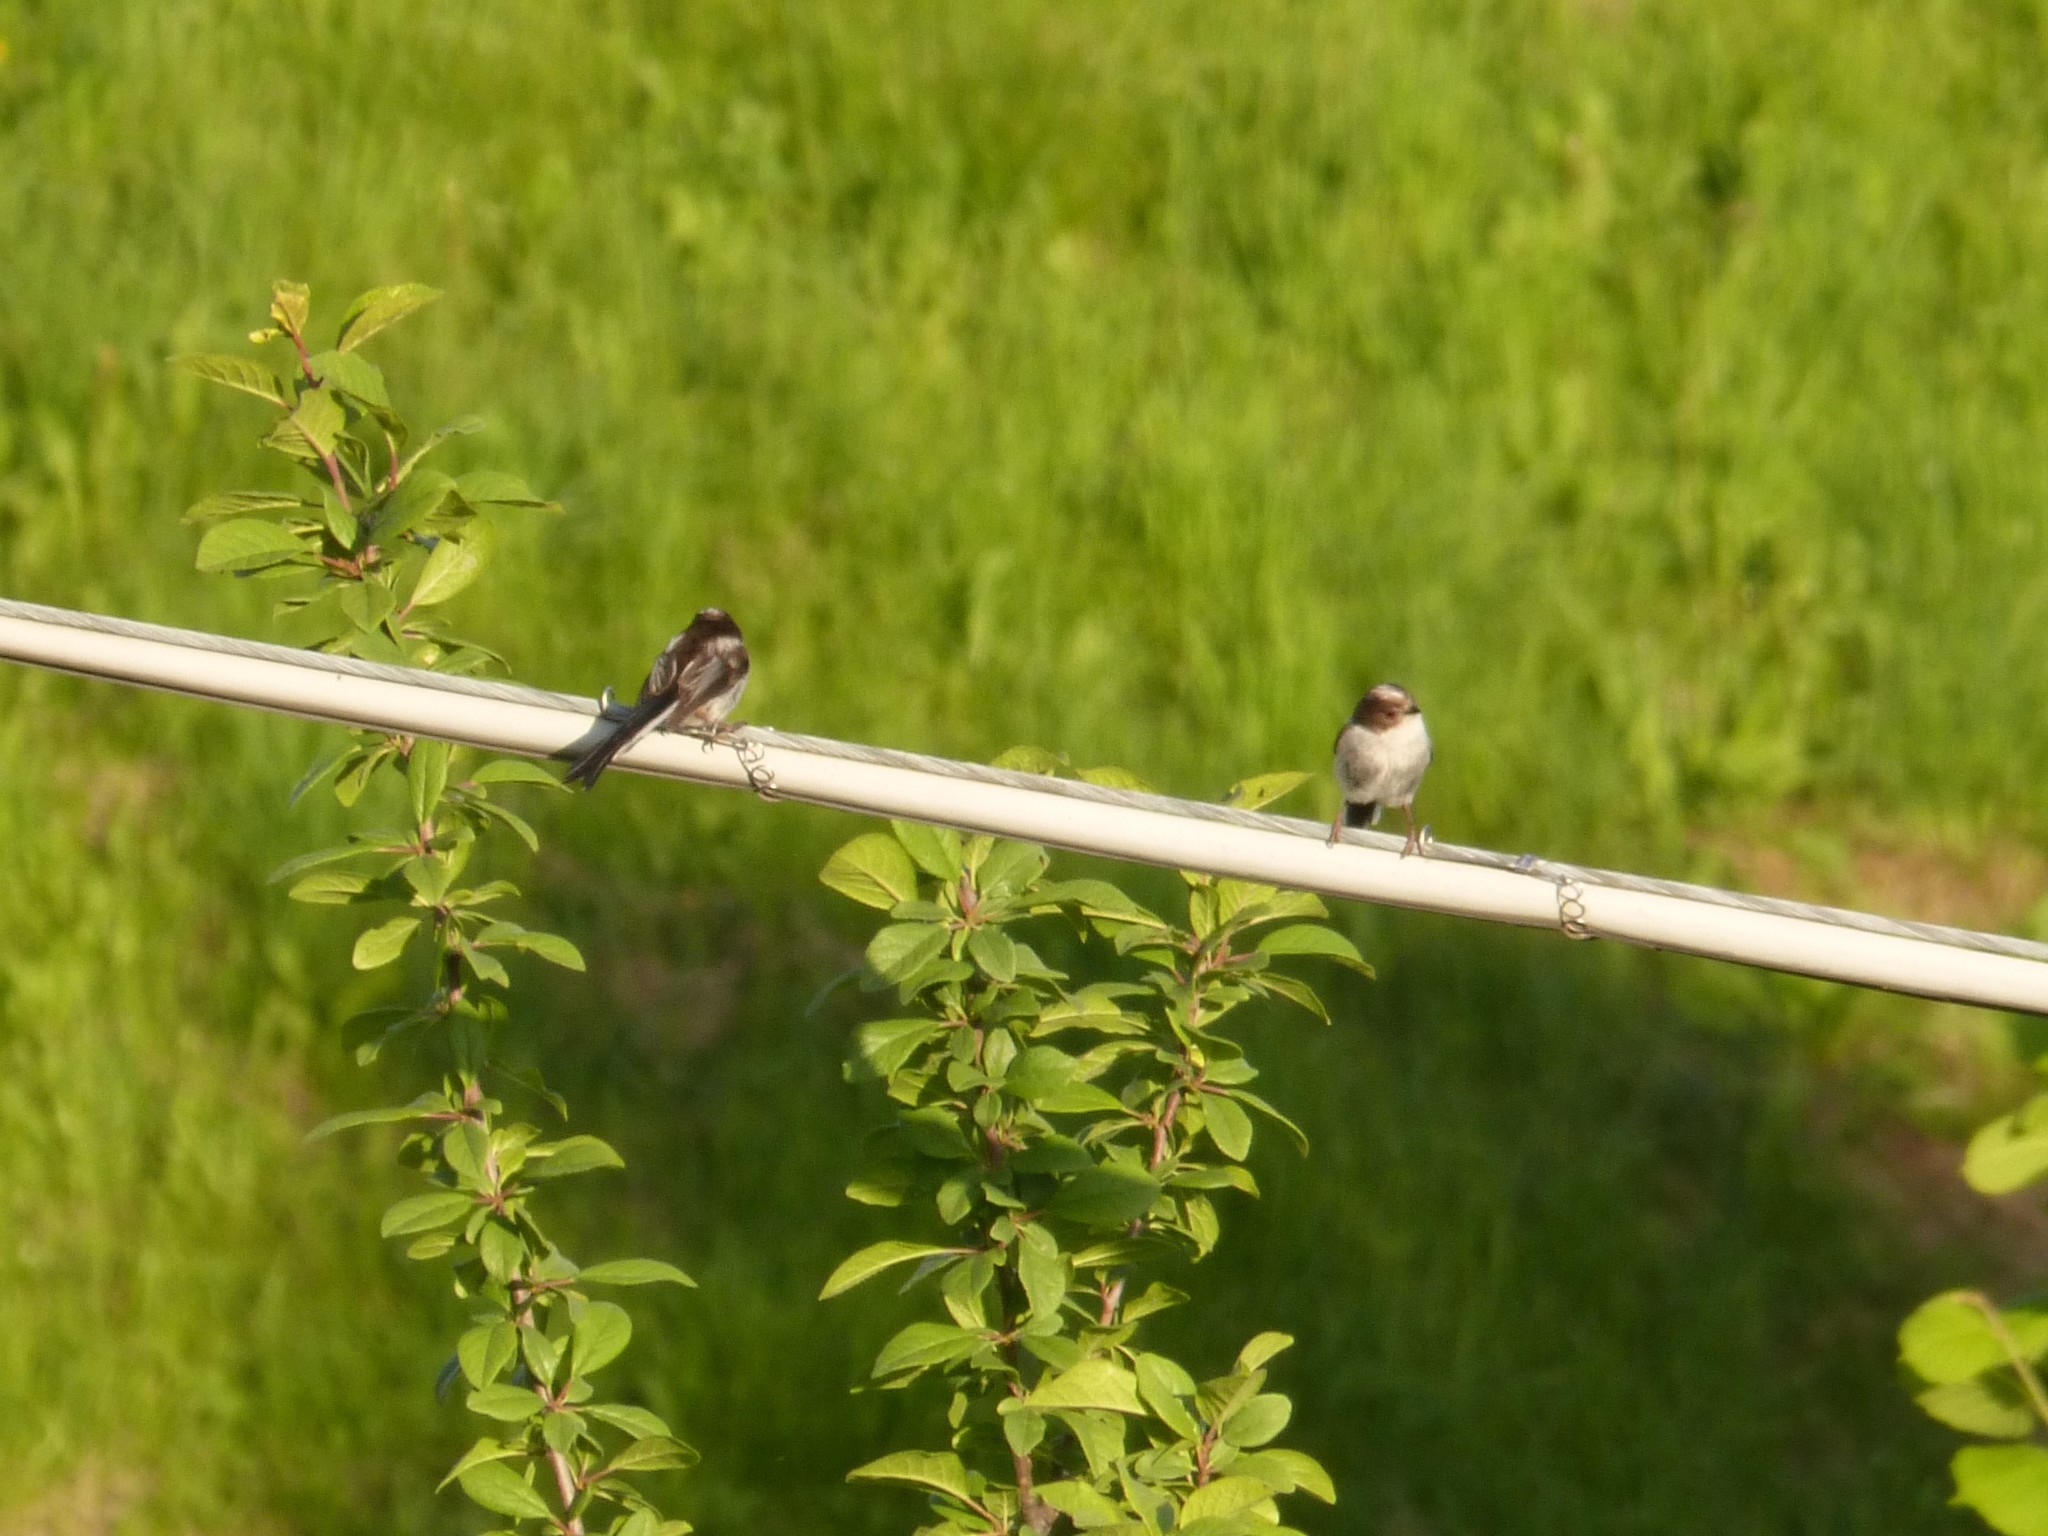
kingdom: Animalia
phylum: Chordata
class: Aves
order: Passeriformes
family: Aegithalidae
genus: Aegithalos
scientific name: Aegithalos caudatus
